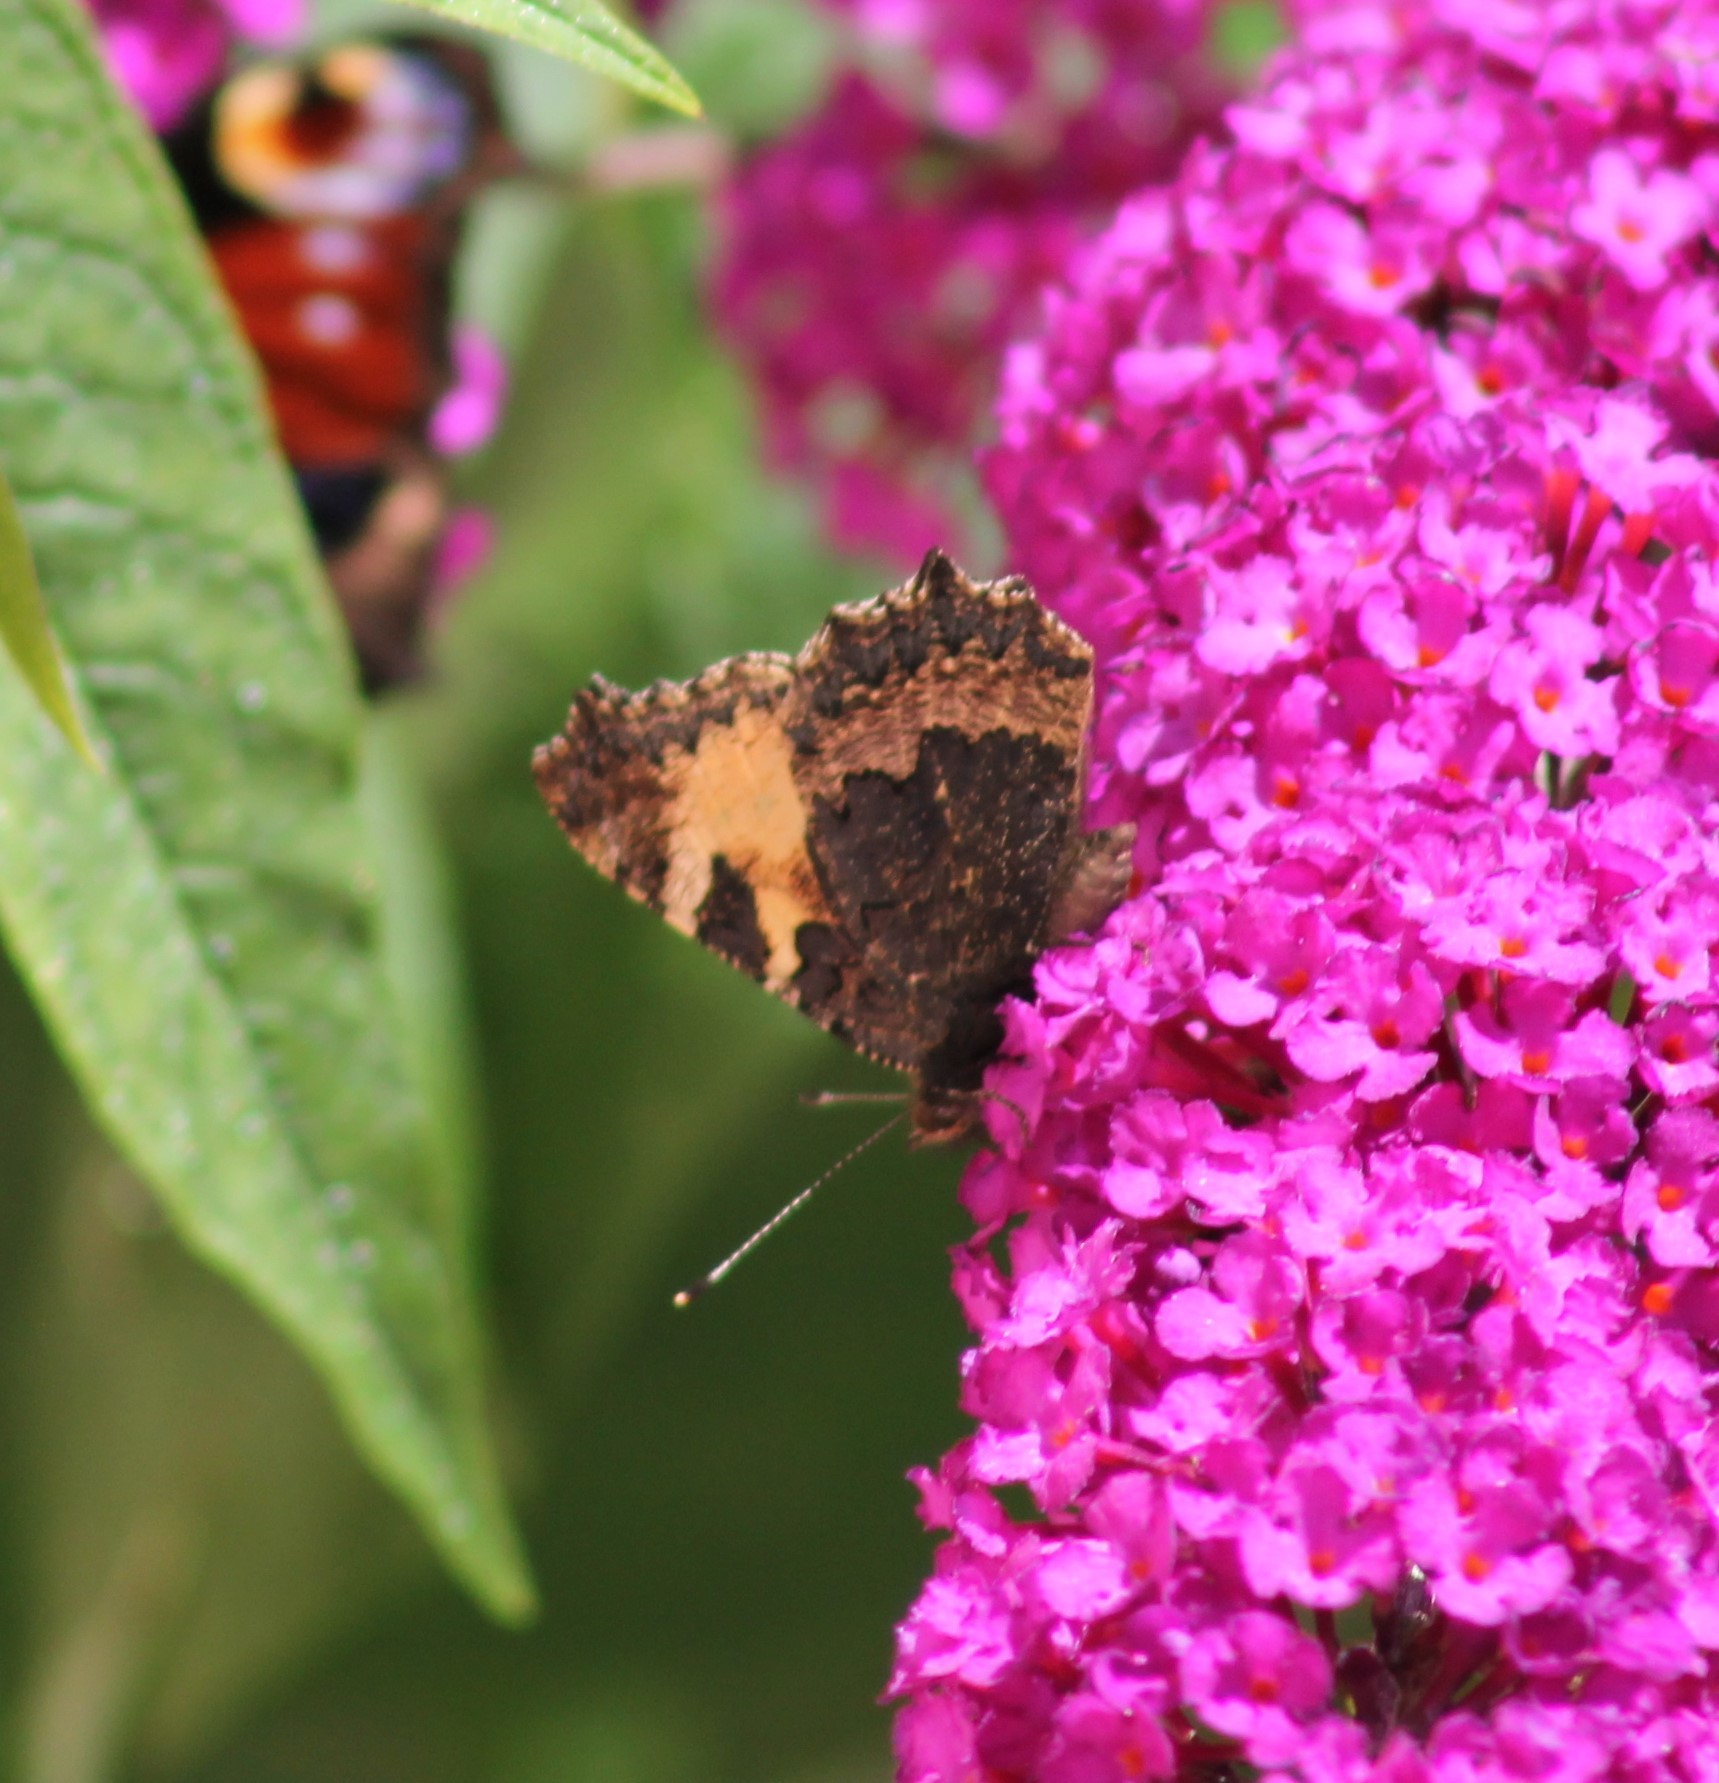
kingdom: Animalia
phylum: Arthropoda
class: Insecta
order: Lepidoptera
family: Nymphalidae
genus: Aglais
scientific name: Aglais urticae
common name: Small tortoiseshell
